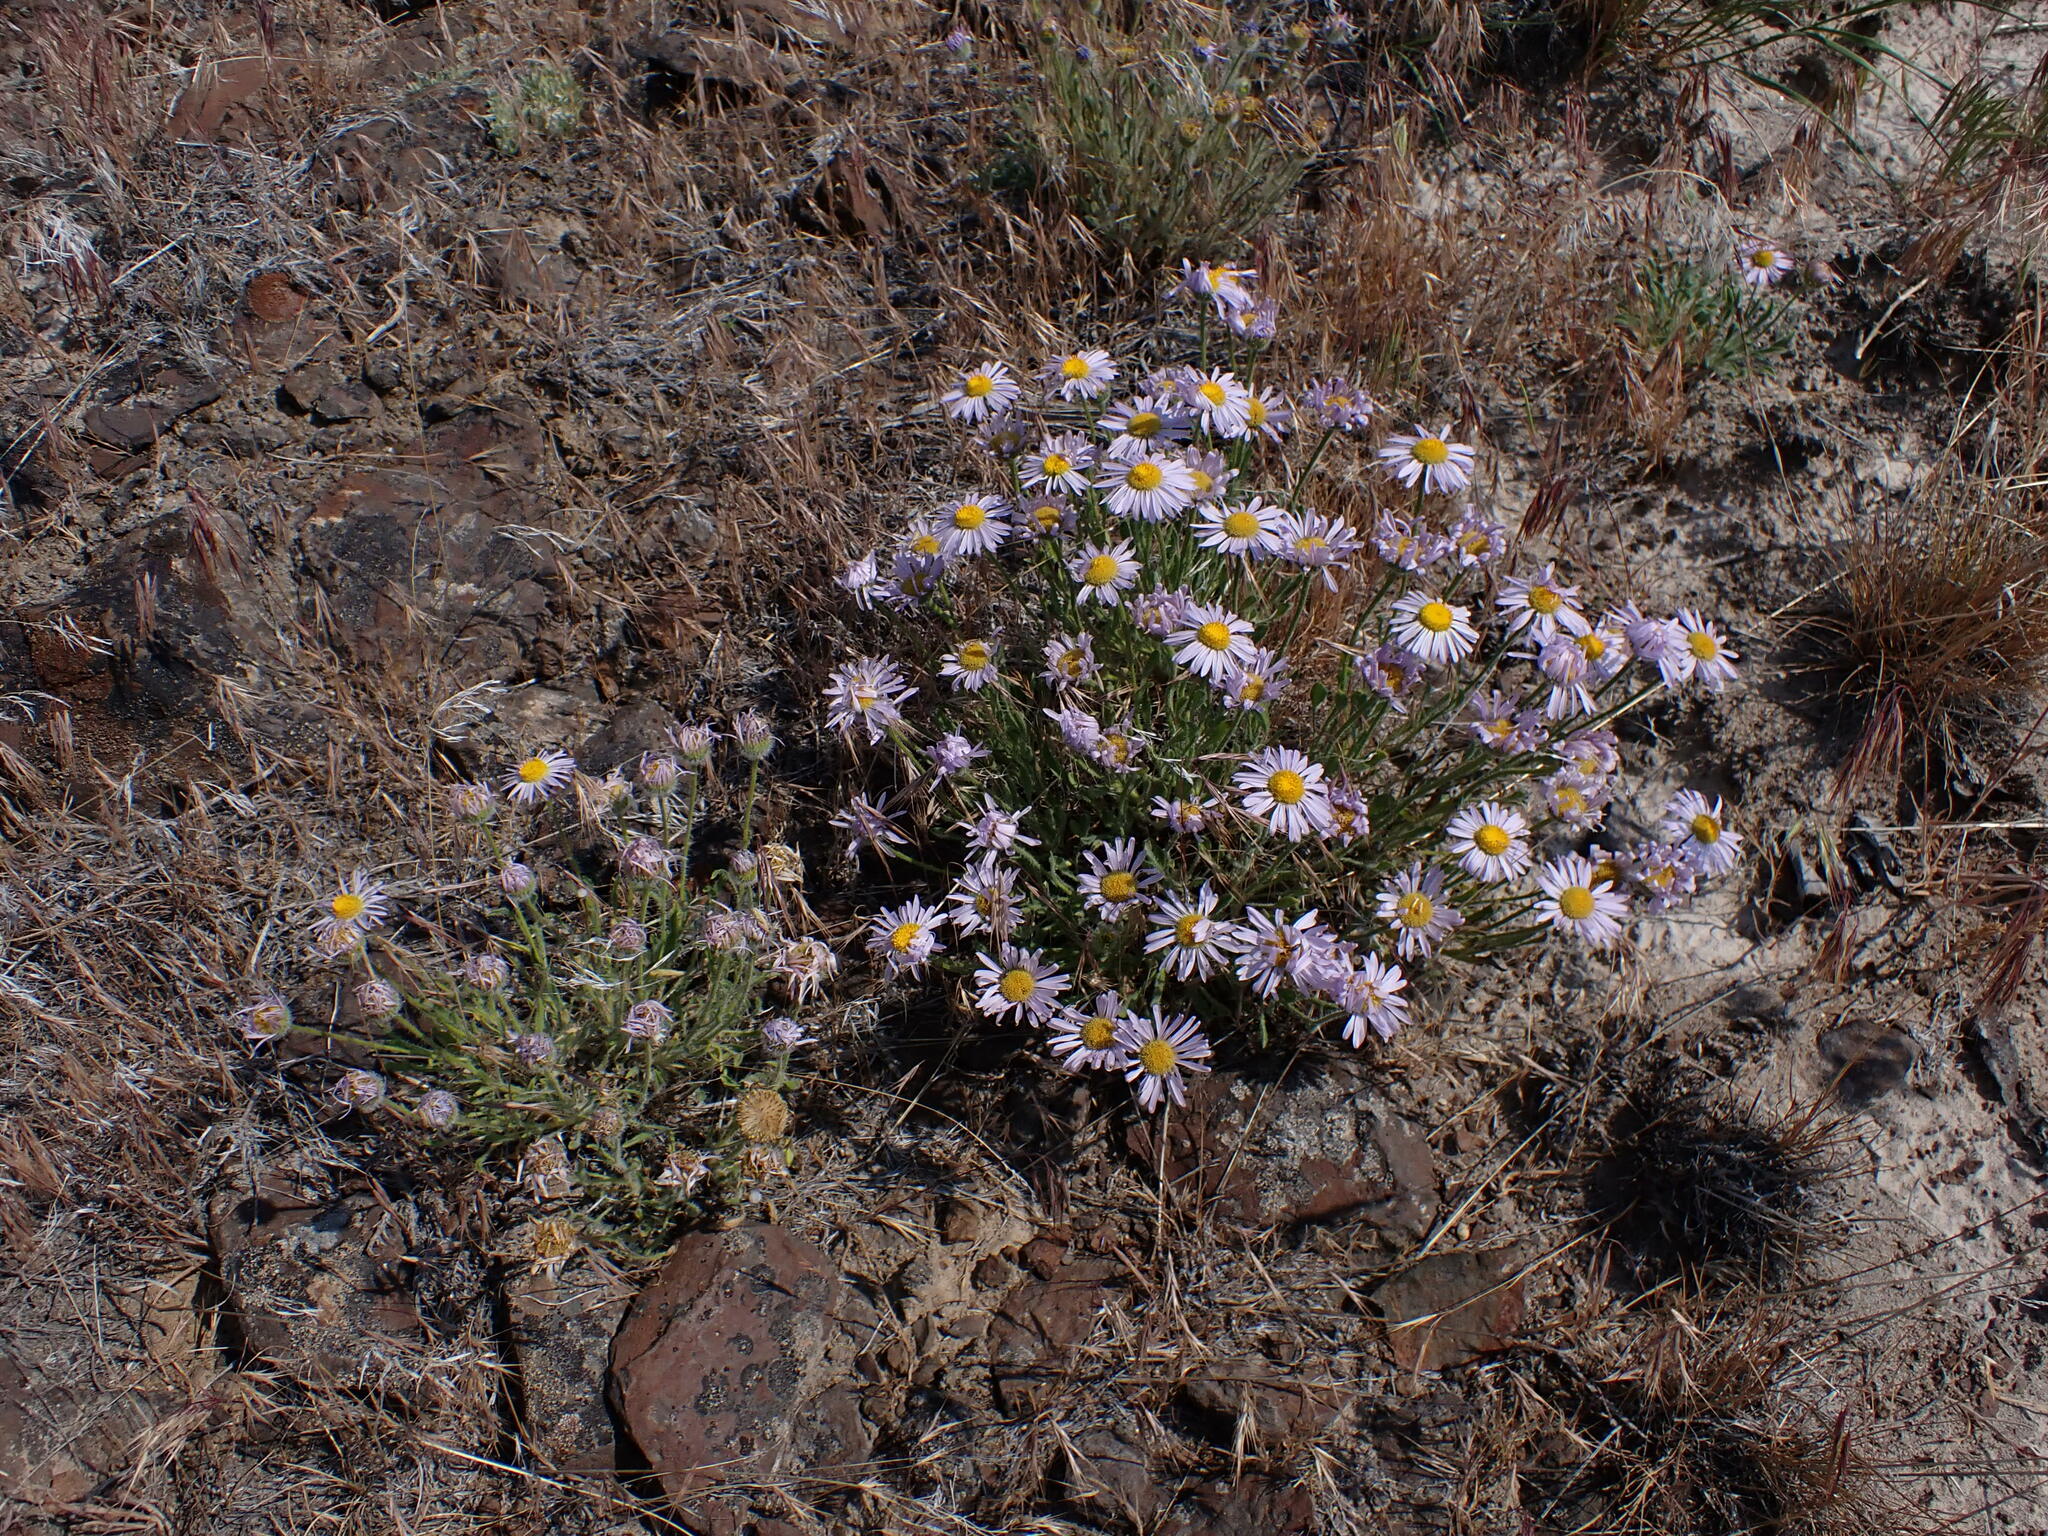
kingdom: Plantae
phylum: Tracheophyta
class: Magnoliopsida
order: Asterales
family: Asteraceae
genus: Erigeron
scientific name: Erigeron poliospermus
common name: Cushion fleabane
